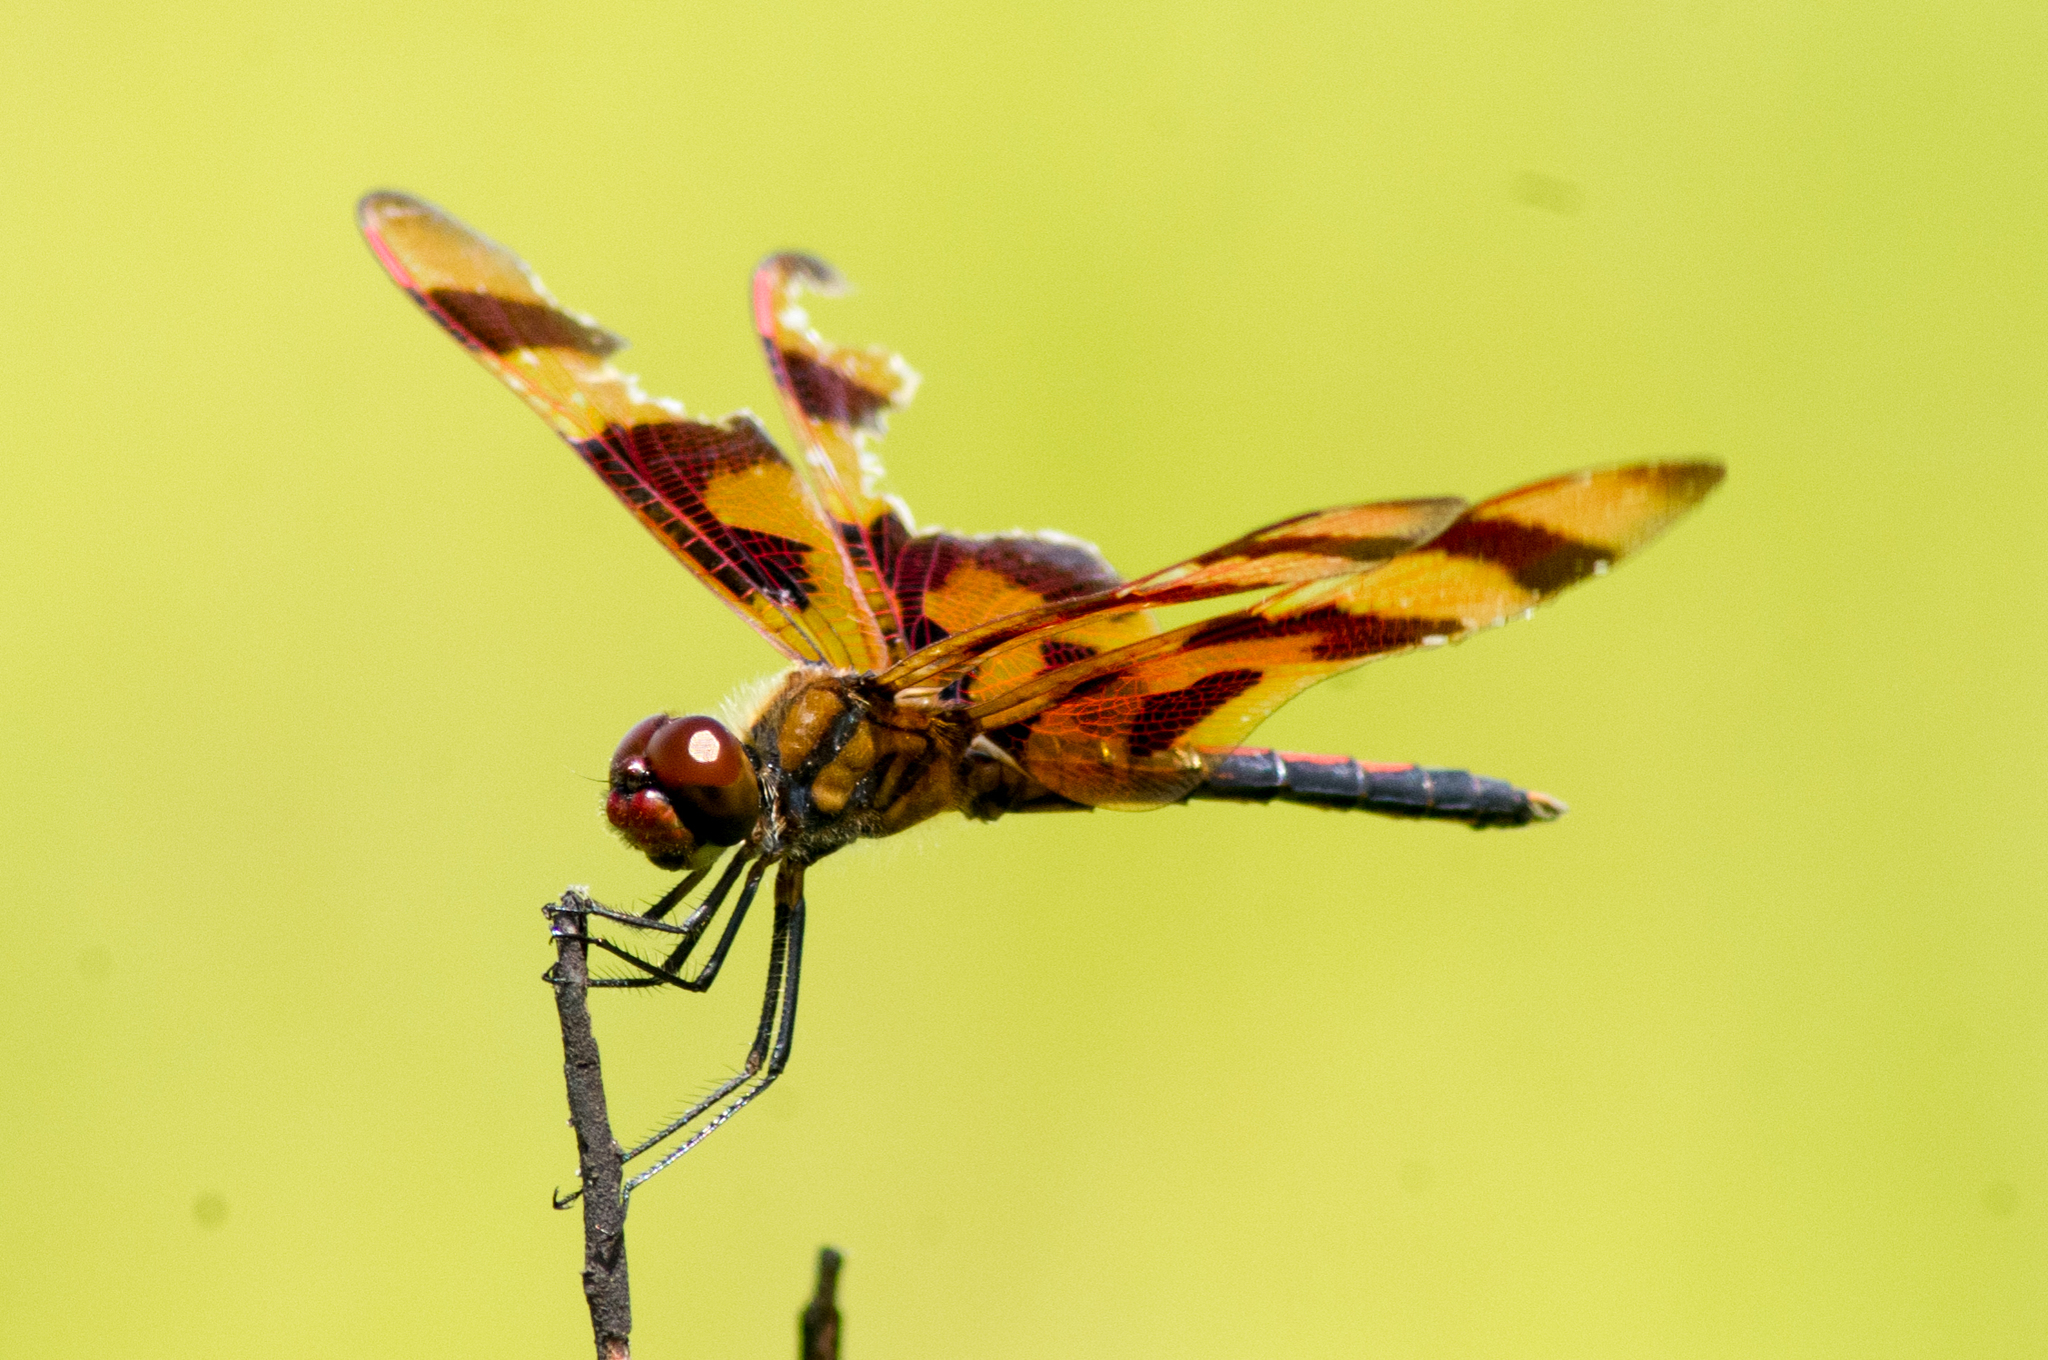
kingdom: Animalia
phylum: Arthropoda
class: Insecta
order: Odonata
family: Libellulidae
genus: Celithemis
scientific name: Celithemis eponina
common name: Halloween pennant
